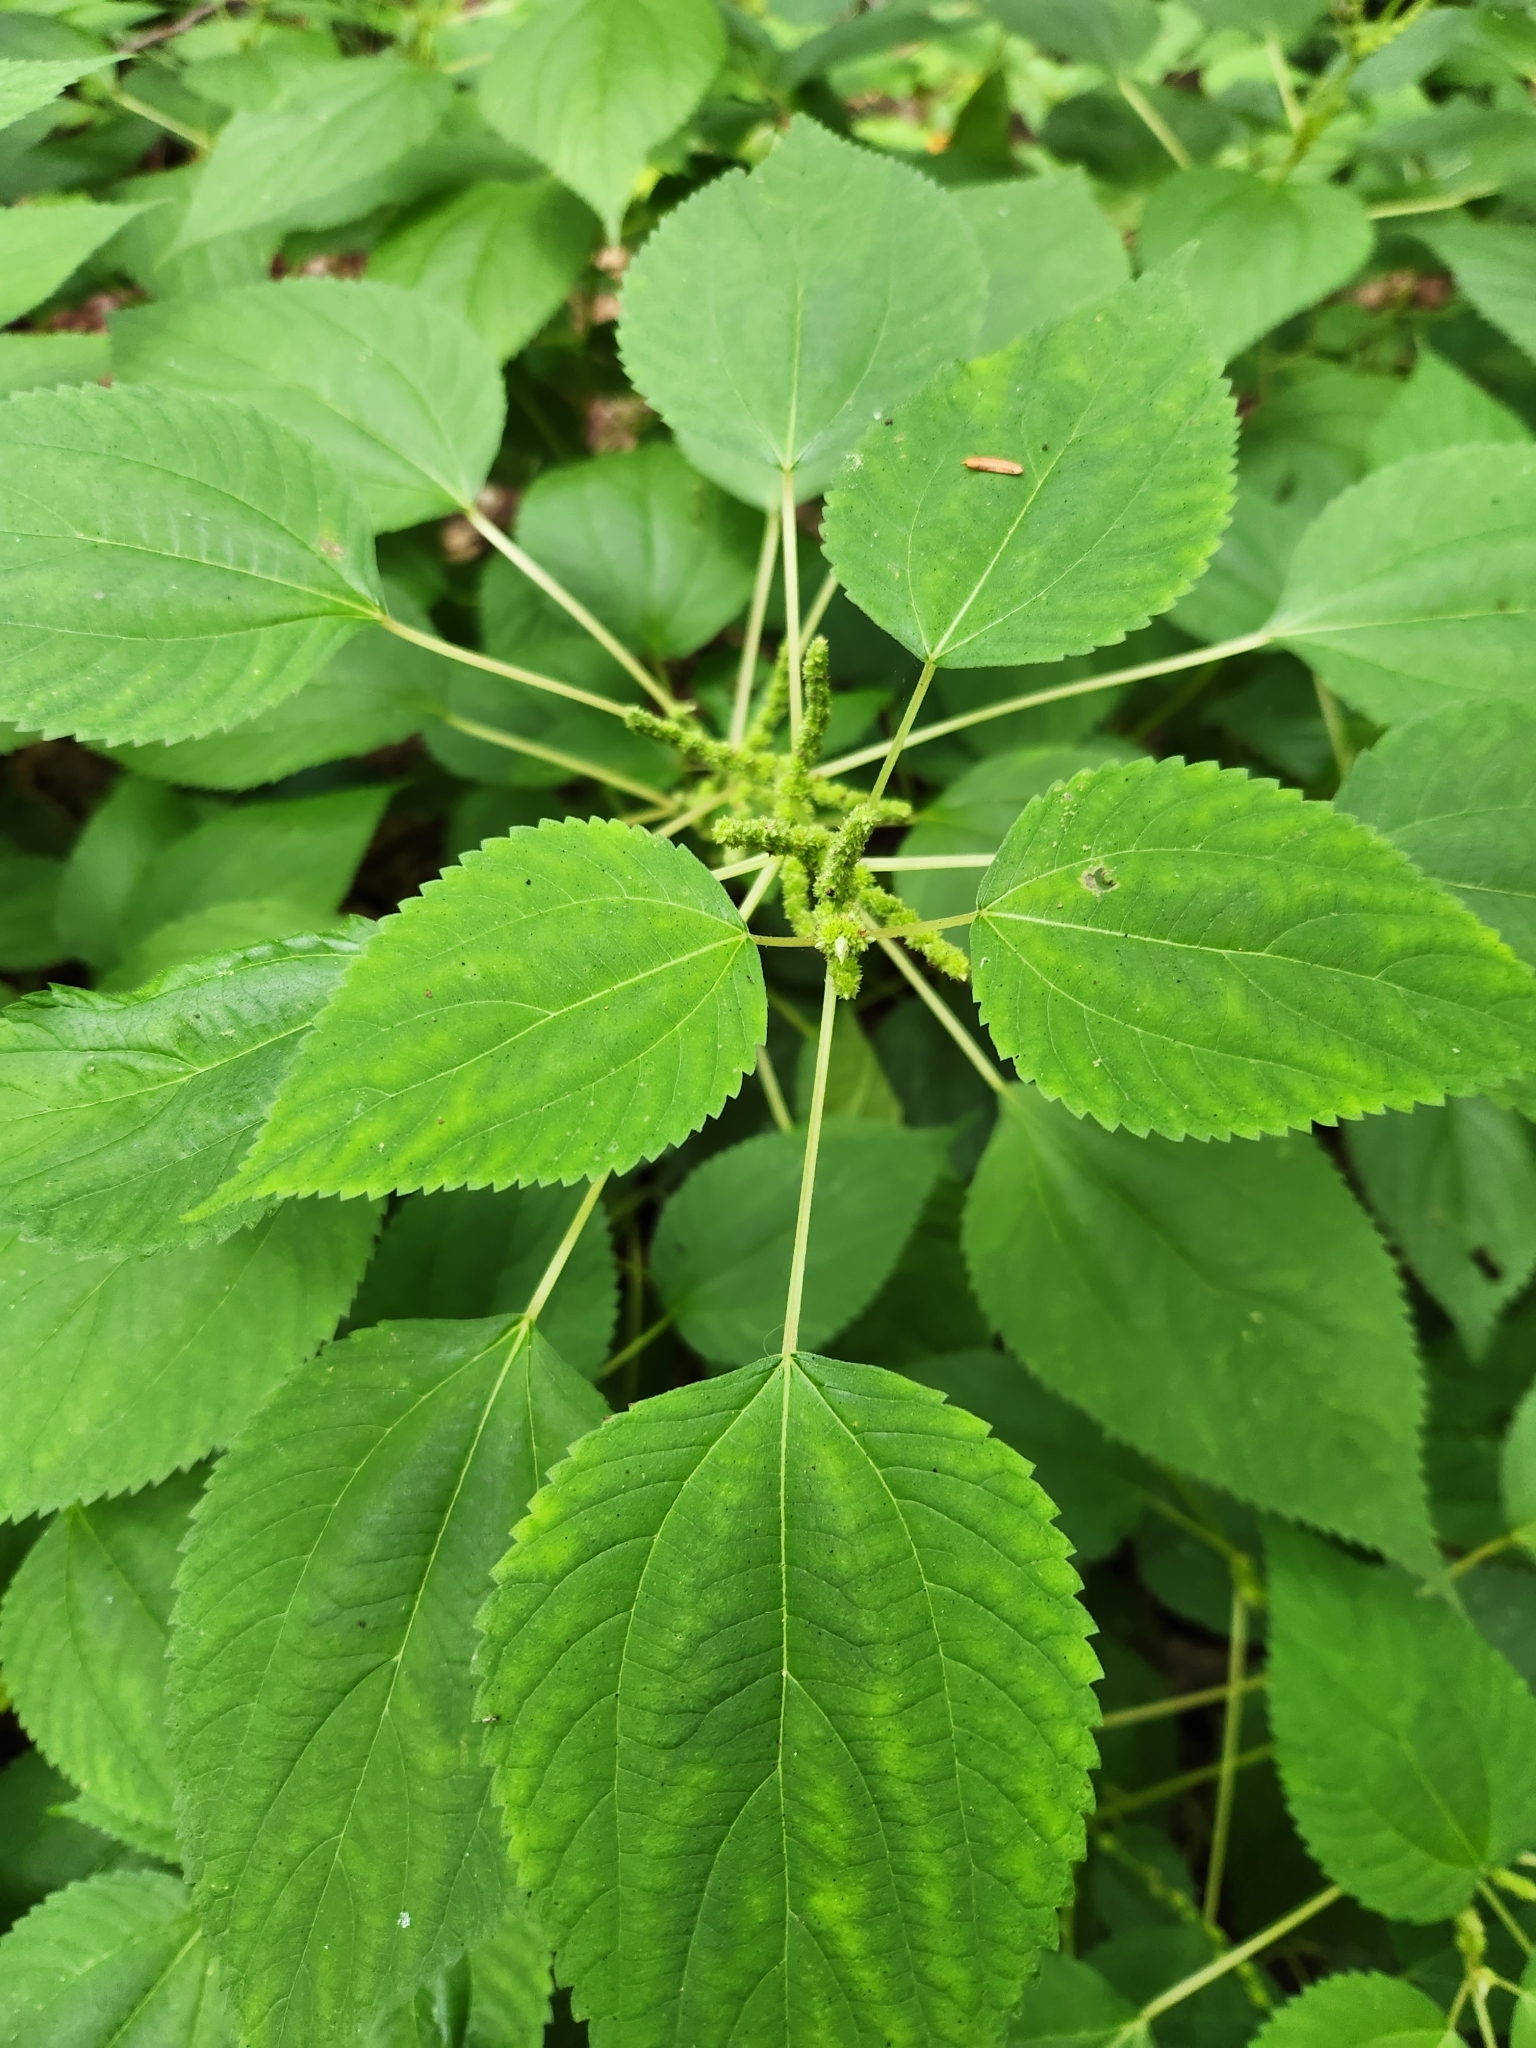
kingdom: Plantae
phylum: Tracheophyta
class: Magnoliopsida
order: Rosales
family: Urticaceae
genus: Boehmeria
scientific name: Boehmeria cylindrica
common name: Bog-hemp
